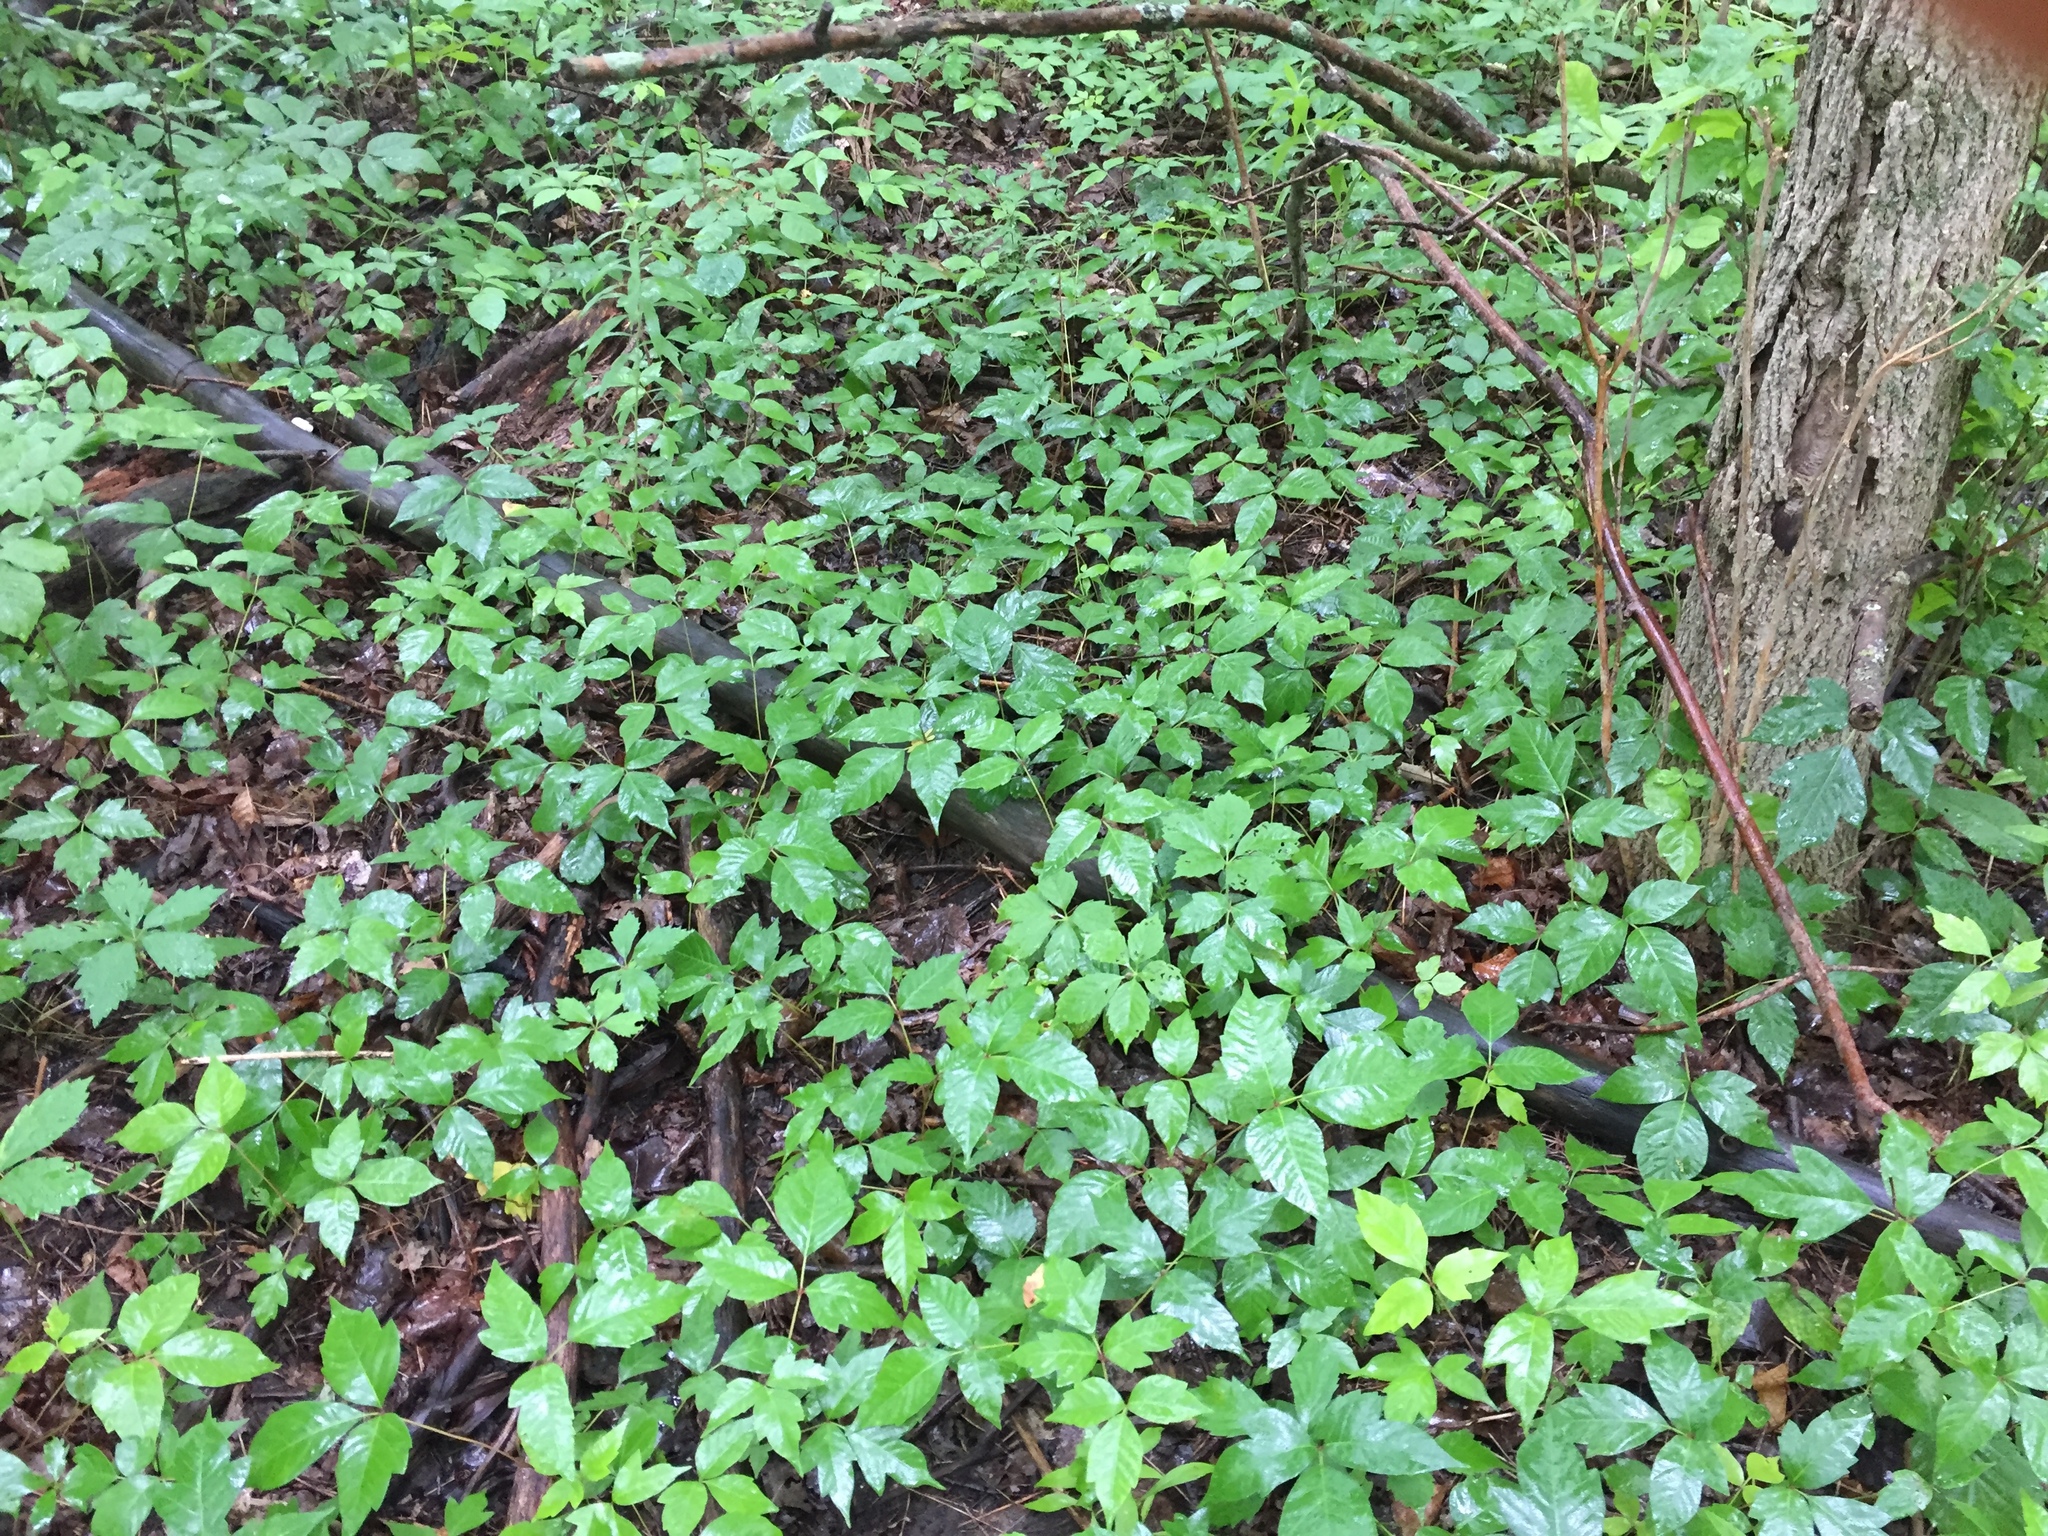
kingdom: Plantae
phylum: Tracheophyta
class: Magnoliopsida
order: Sapindales
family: Anacardiaceae
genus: Toxicodendron
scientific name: Toxicodendron radicans
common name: Poison ivy
